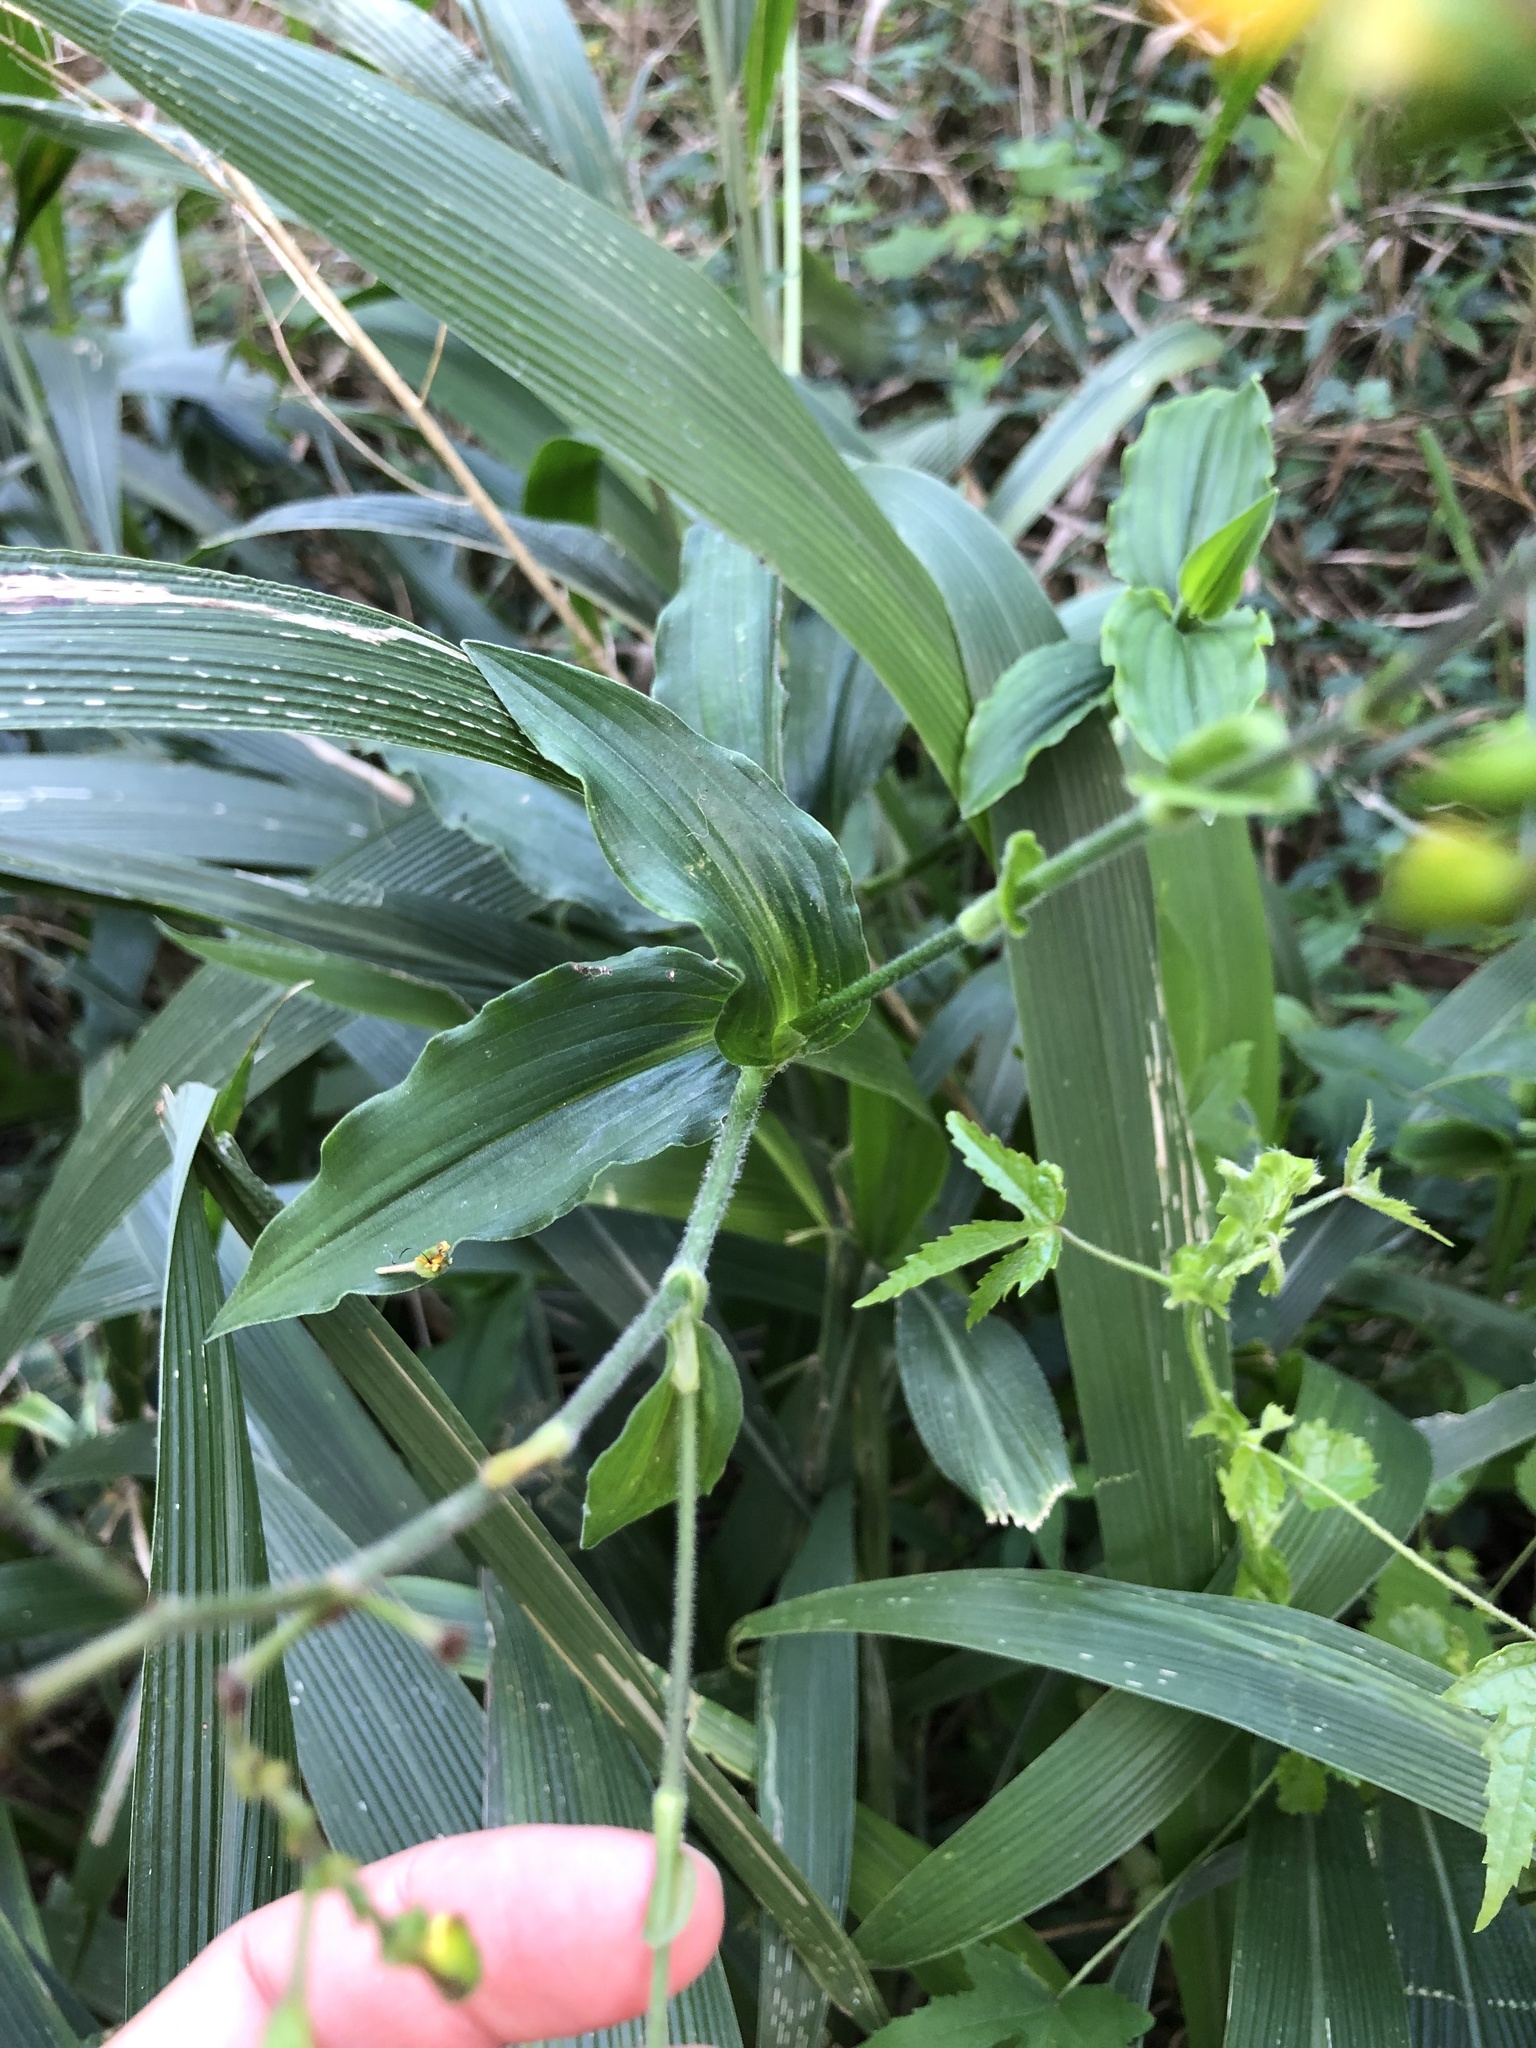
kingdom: Plantae
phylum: Tracheophyta
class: Liliopsida
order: Commelinales
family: Commelinaceae
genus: Aneilema
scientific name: Aneilema aequinoctiale
